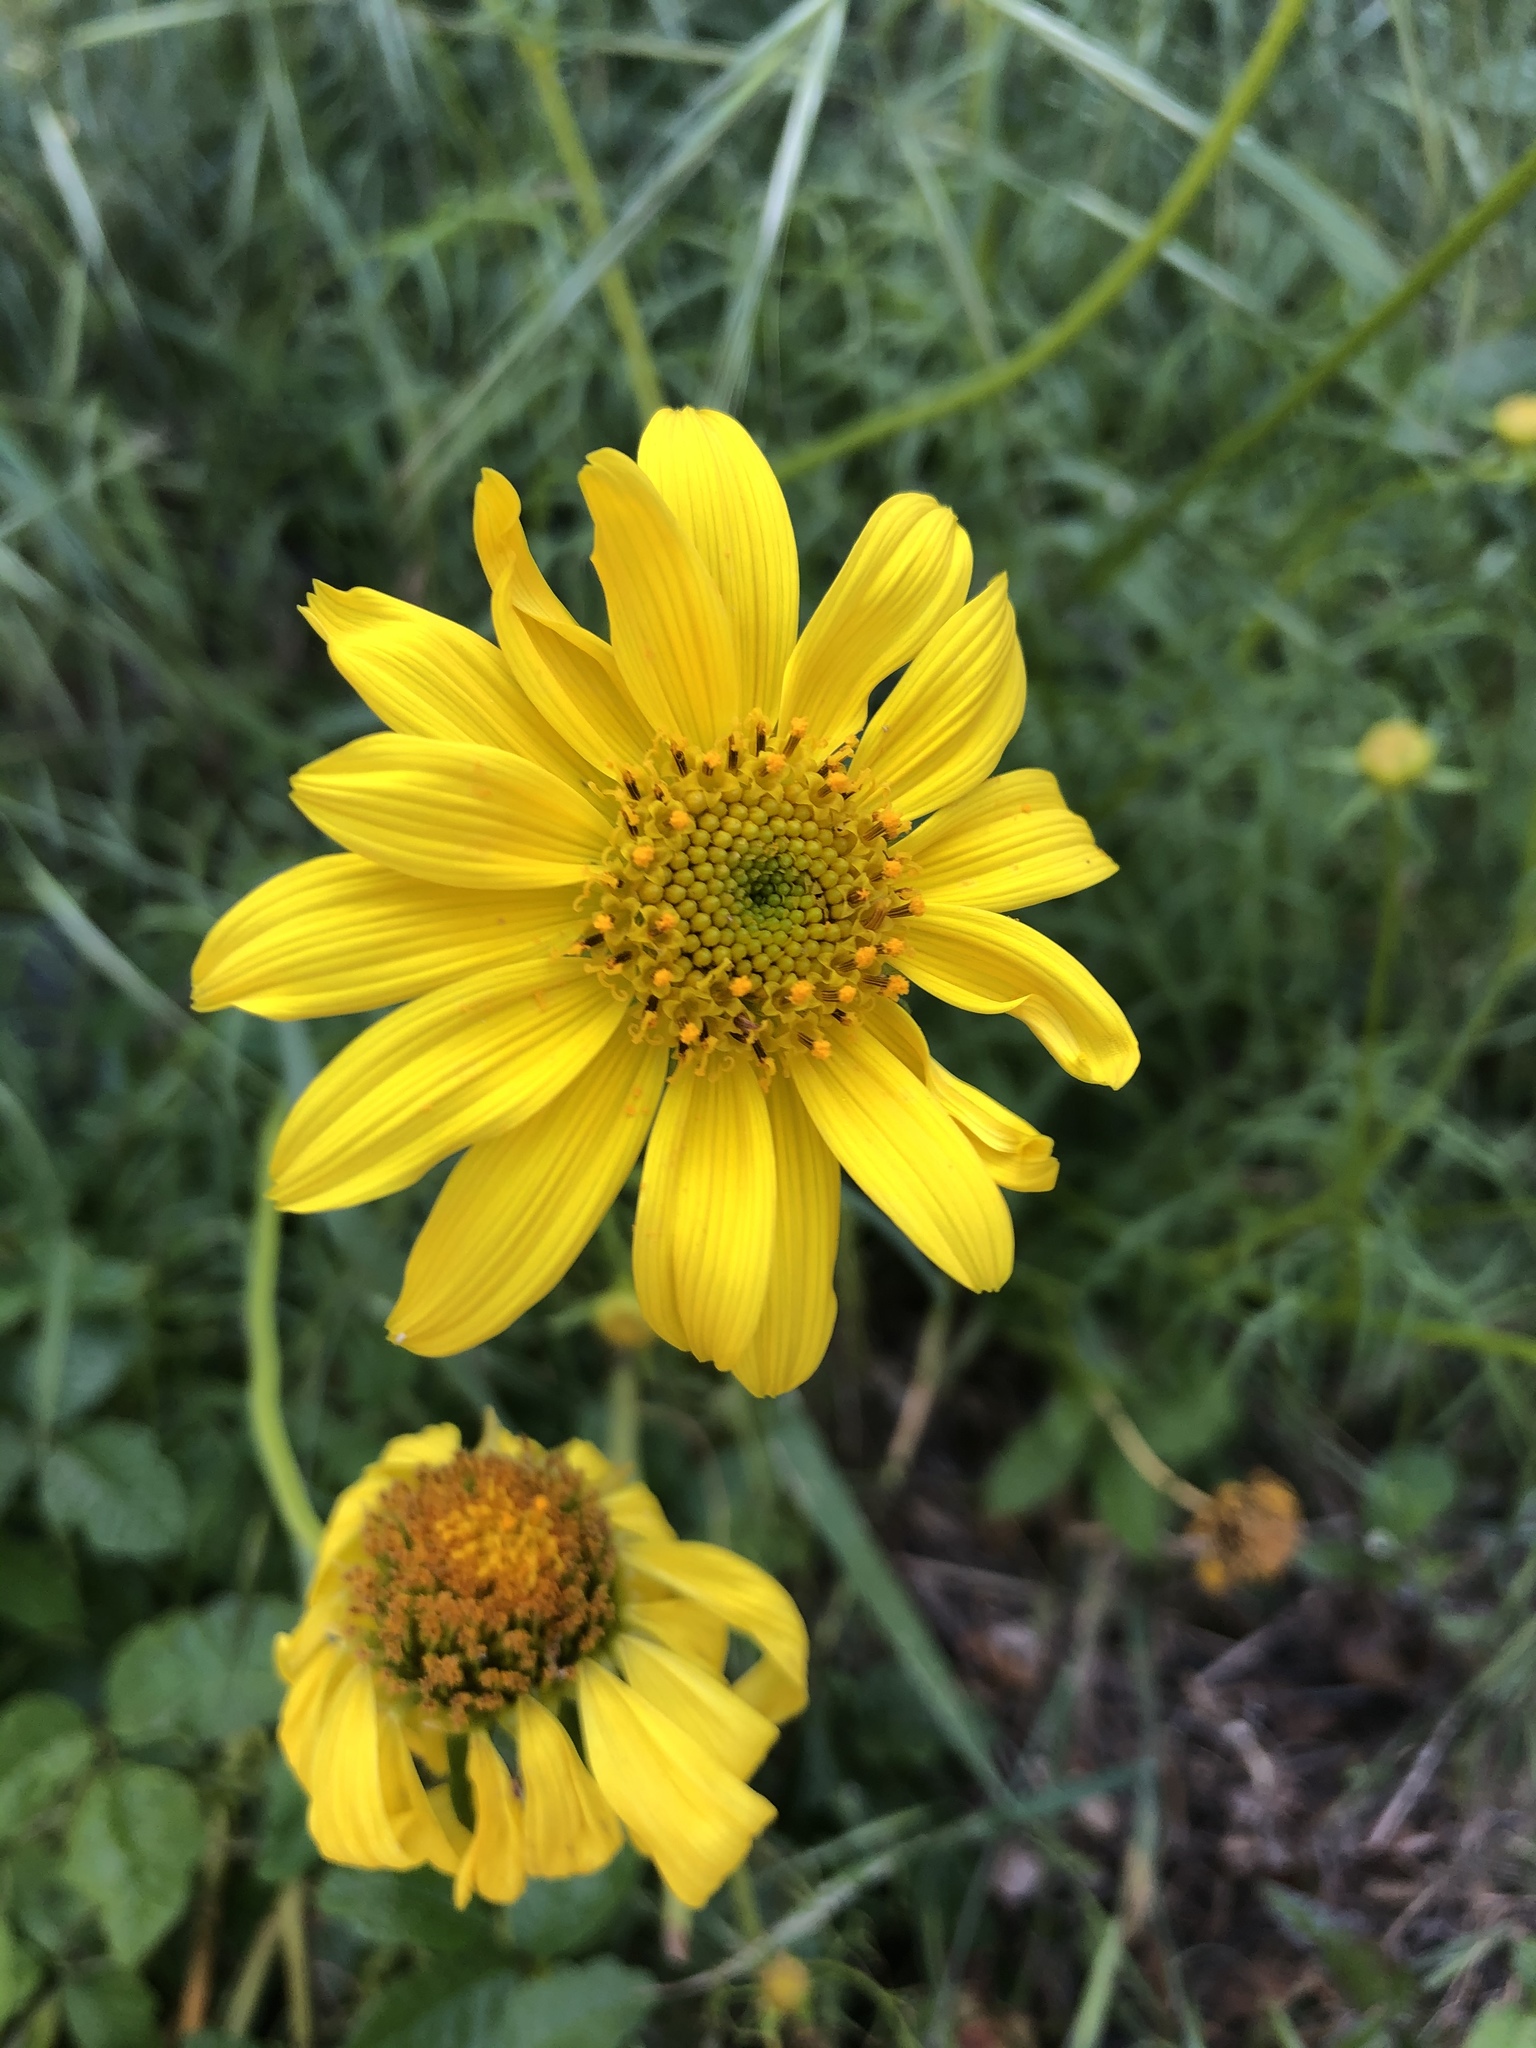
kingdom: Plantae
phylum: Tracheophyta
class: Magnoliopsida
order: Asterales
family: Asteraceae
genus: Coreopsis
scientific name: Coreopsis maritima
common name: Sea-dahlia
